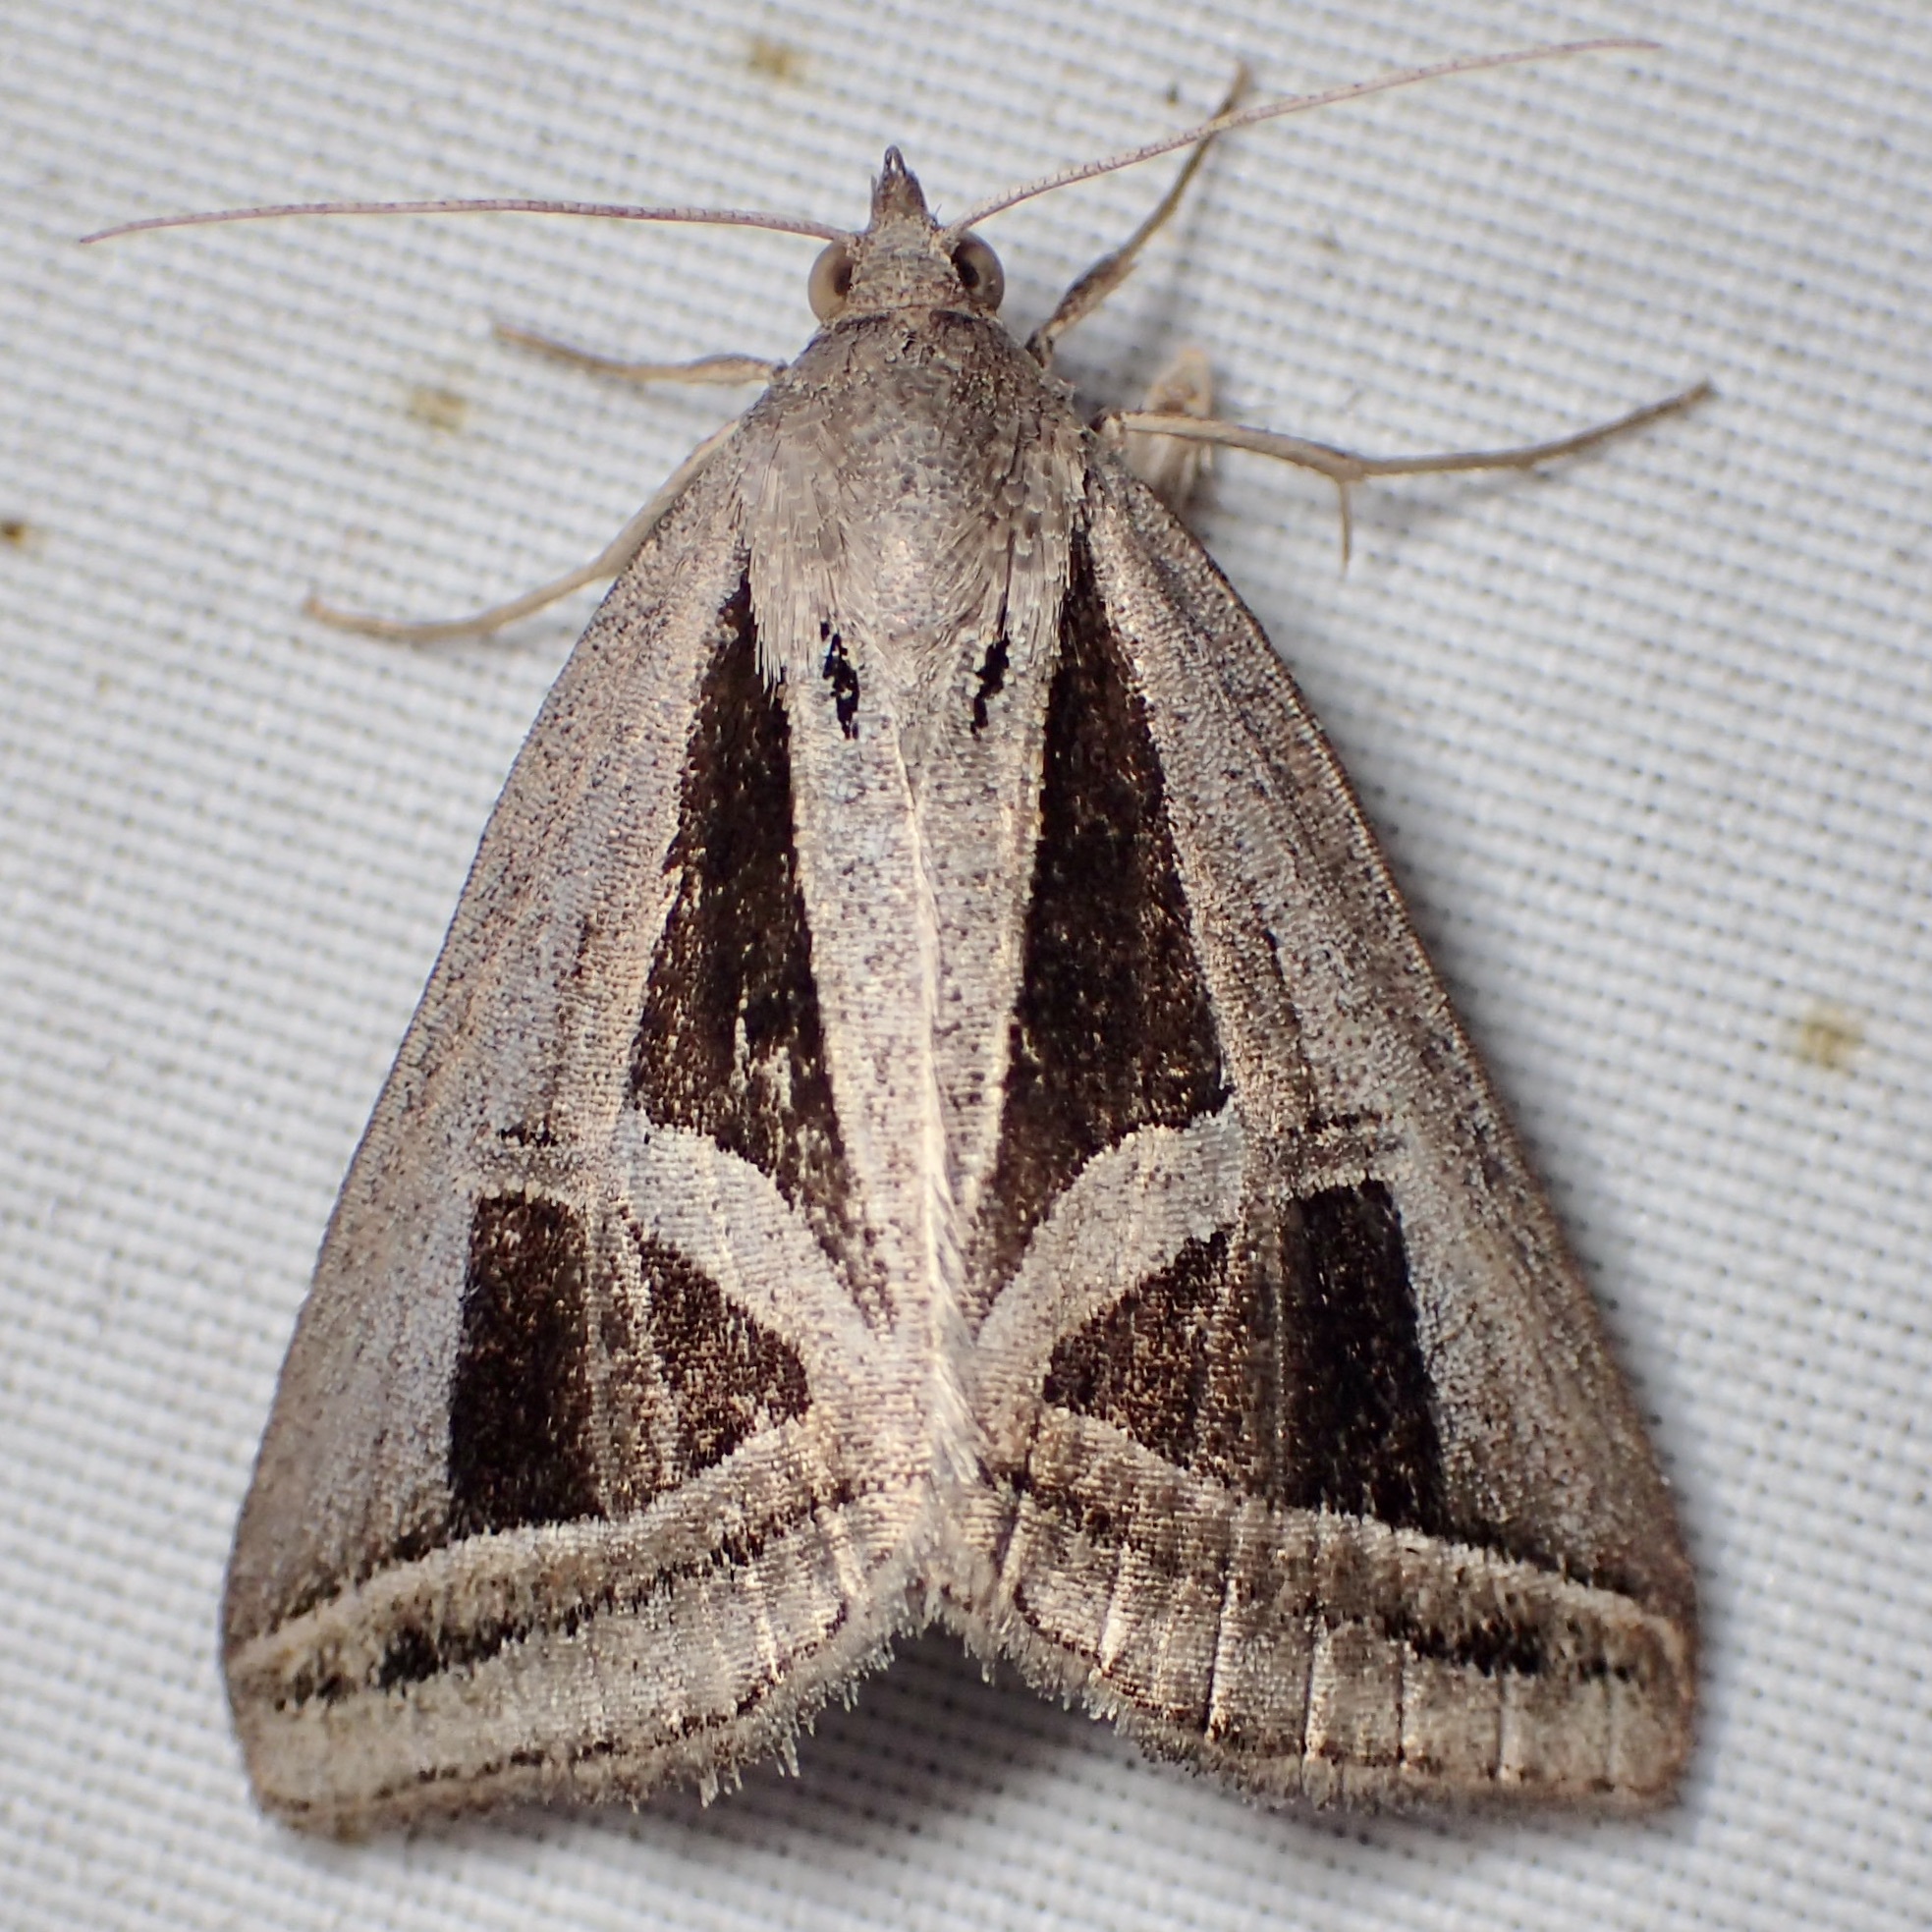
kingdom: Animalia
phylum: Arthropoda
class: Insecta
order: Lepidoptera
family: Erebidae
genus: Callistege
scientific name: Callistege triangula
